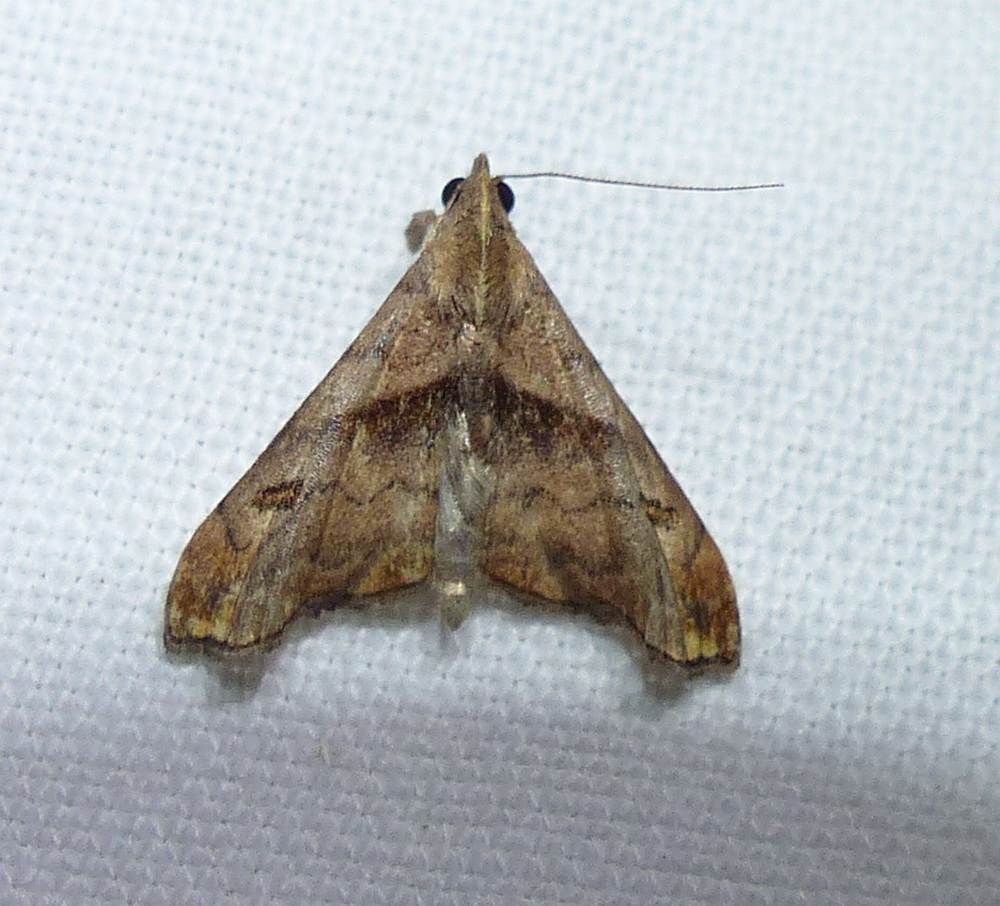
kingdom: Animalia
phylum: Arthropoda
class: Insecta
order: Lepidoptera
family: Erebidae
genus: Palthis
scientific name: Palthis angulalis
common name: Dark-spotted palthis moth
